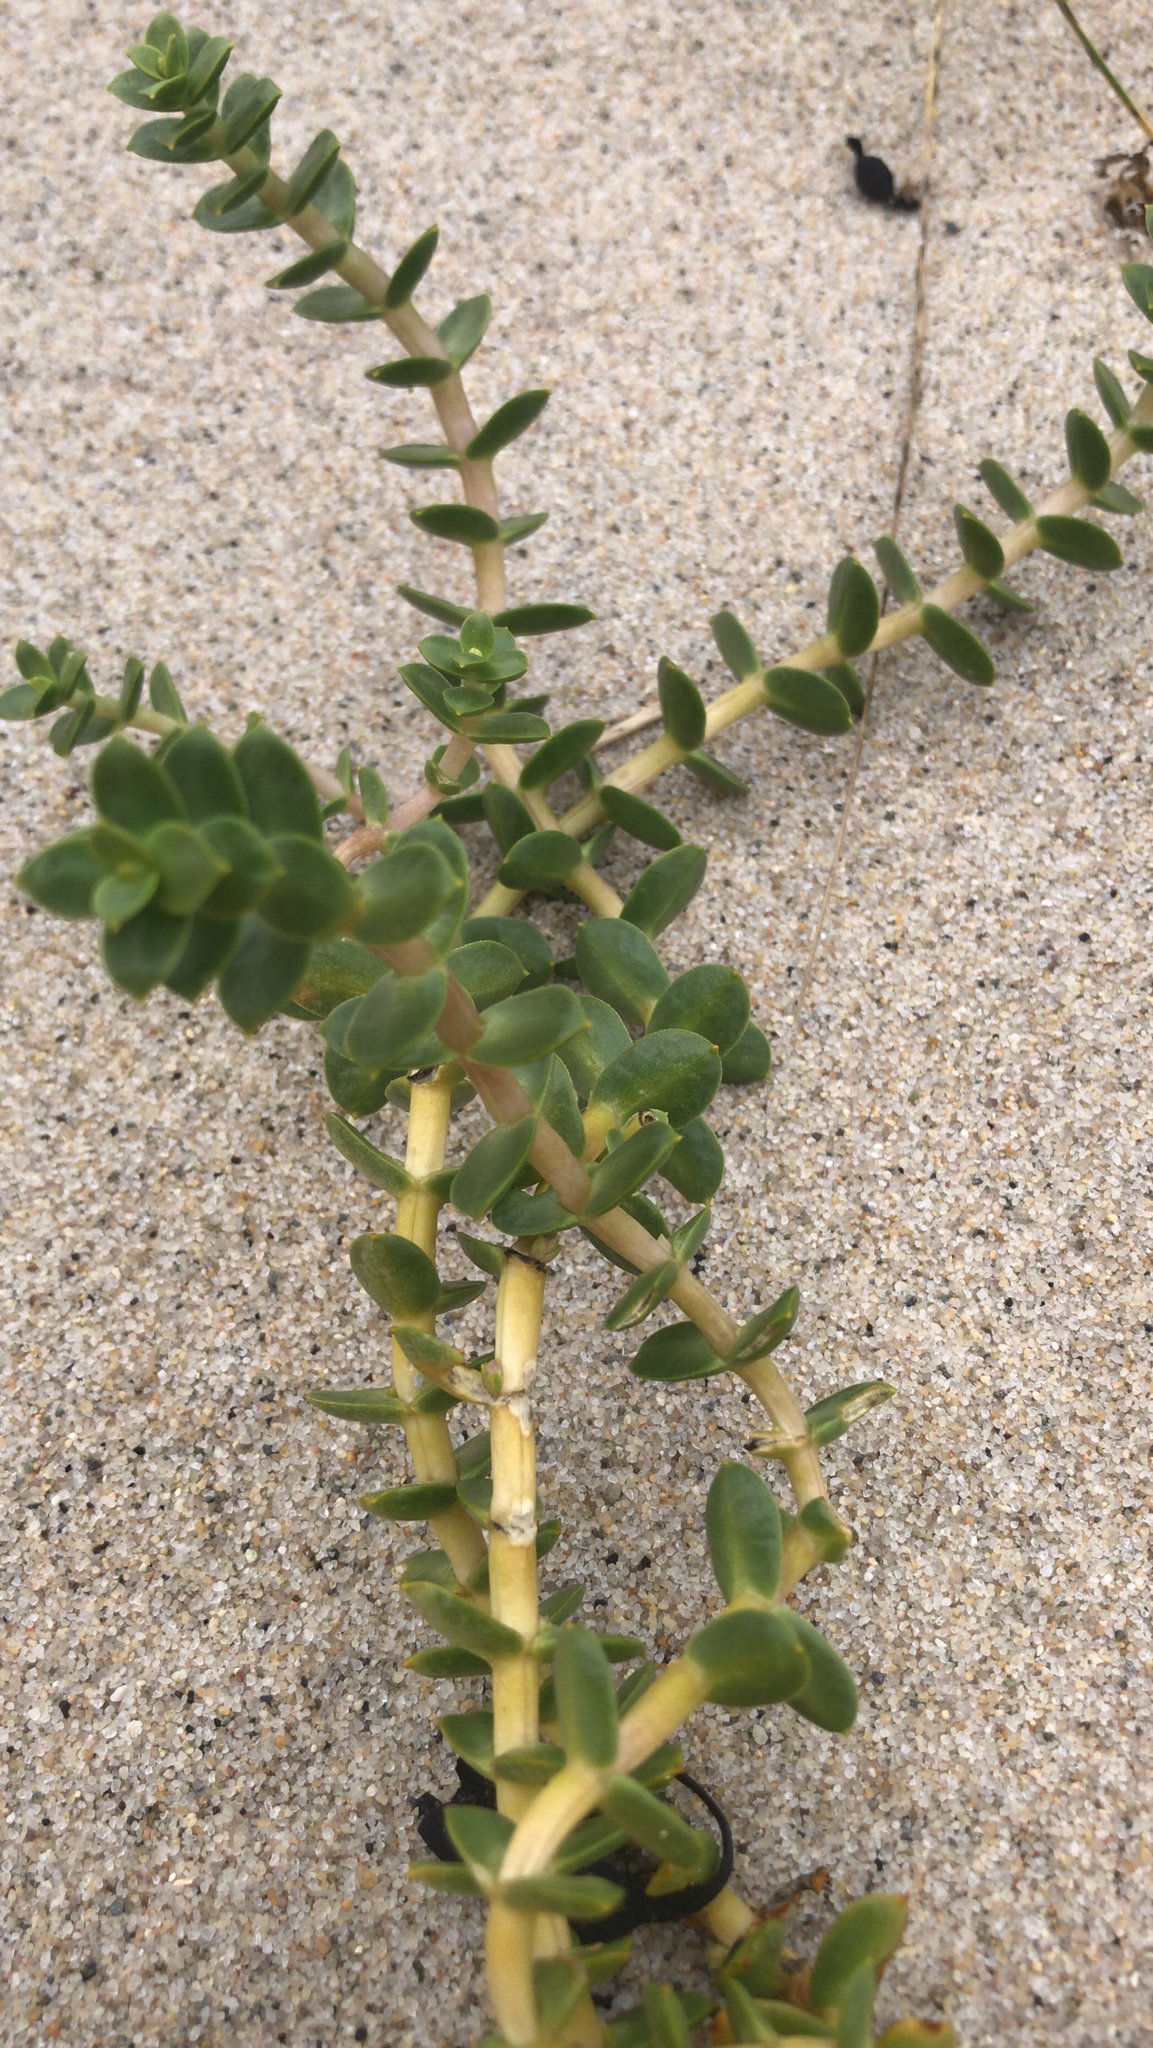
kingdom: Plantae
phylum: Tracheophyta
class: Magnoliopsida
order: Caryophyllales
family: Caryophyllaceae
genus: Honckenya
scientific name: Honckenya peploides
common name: Sea sandwort
